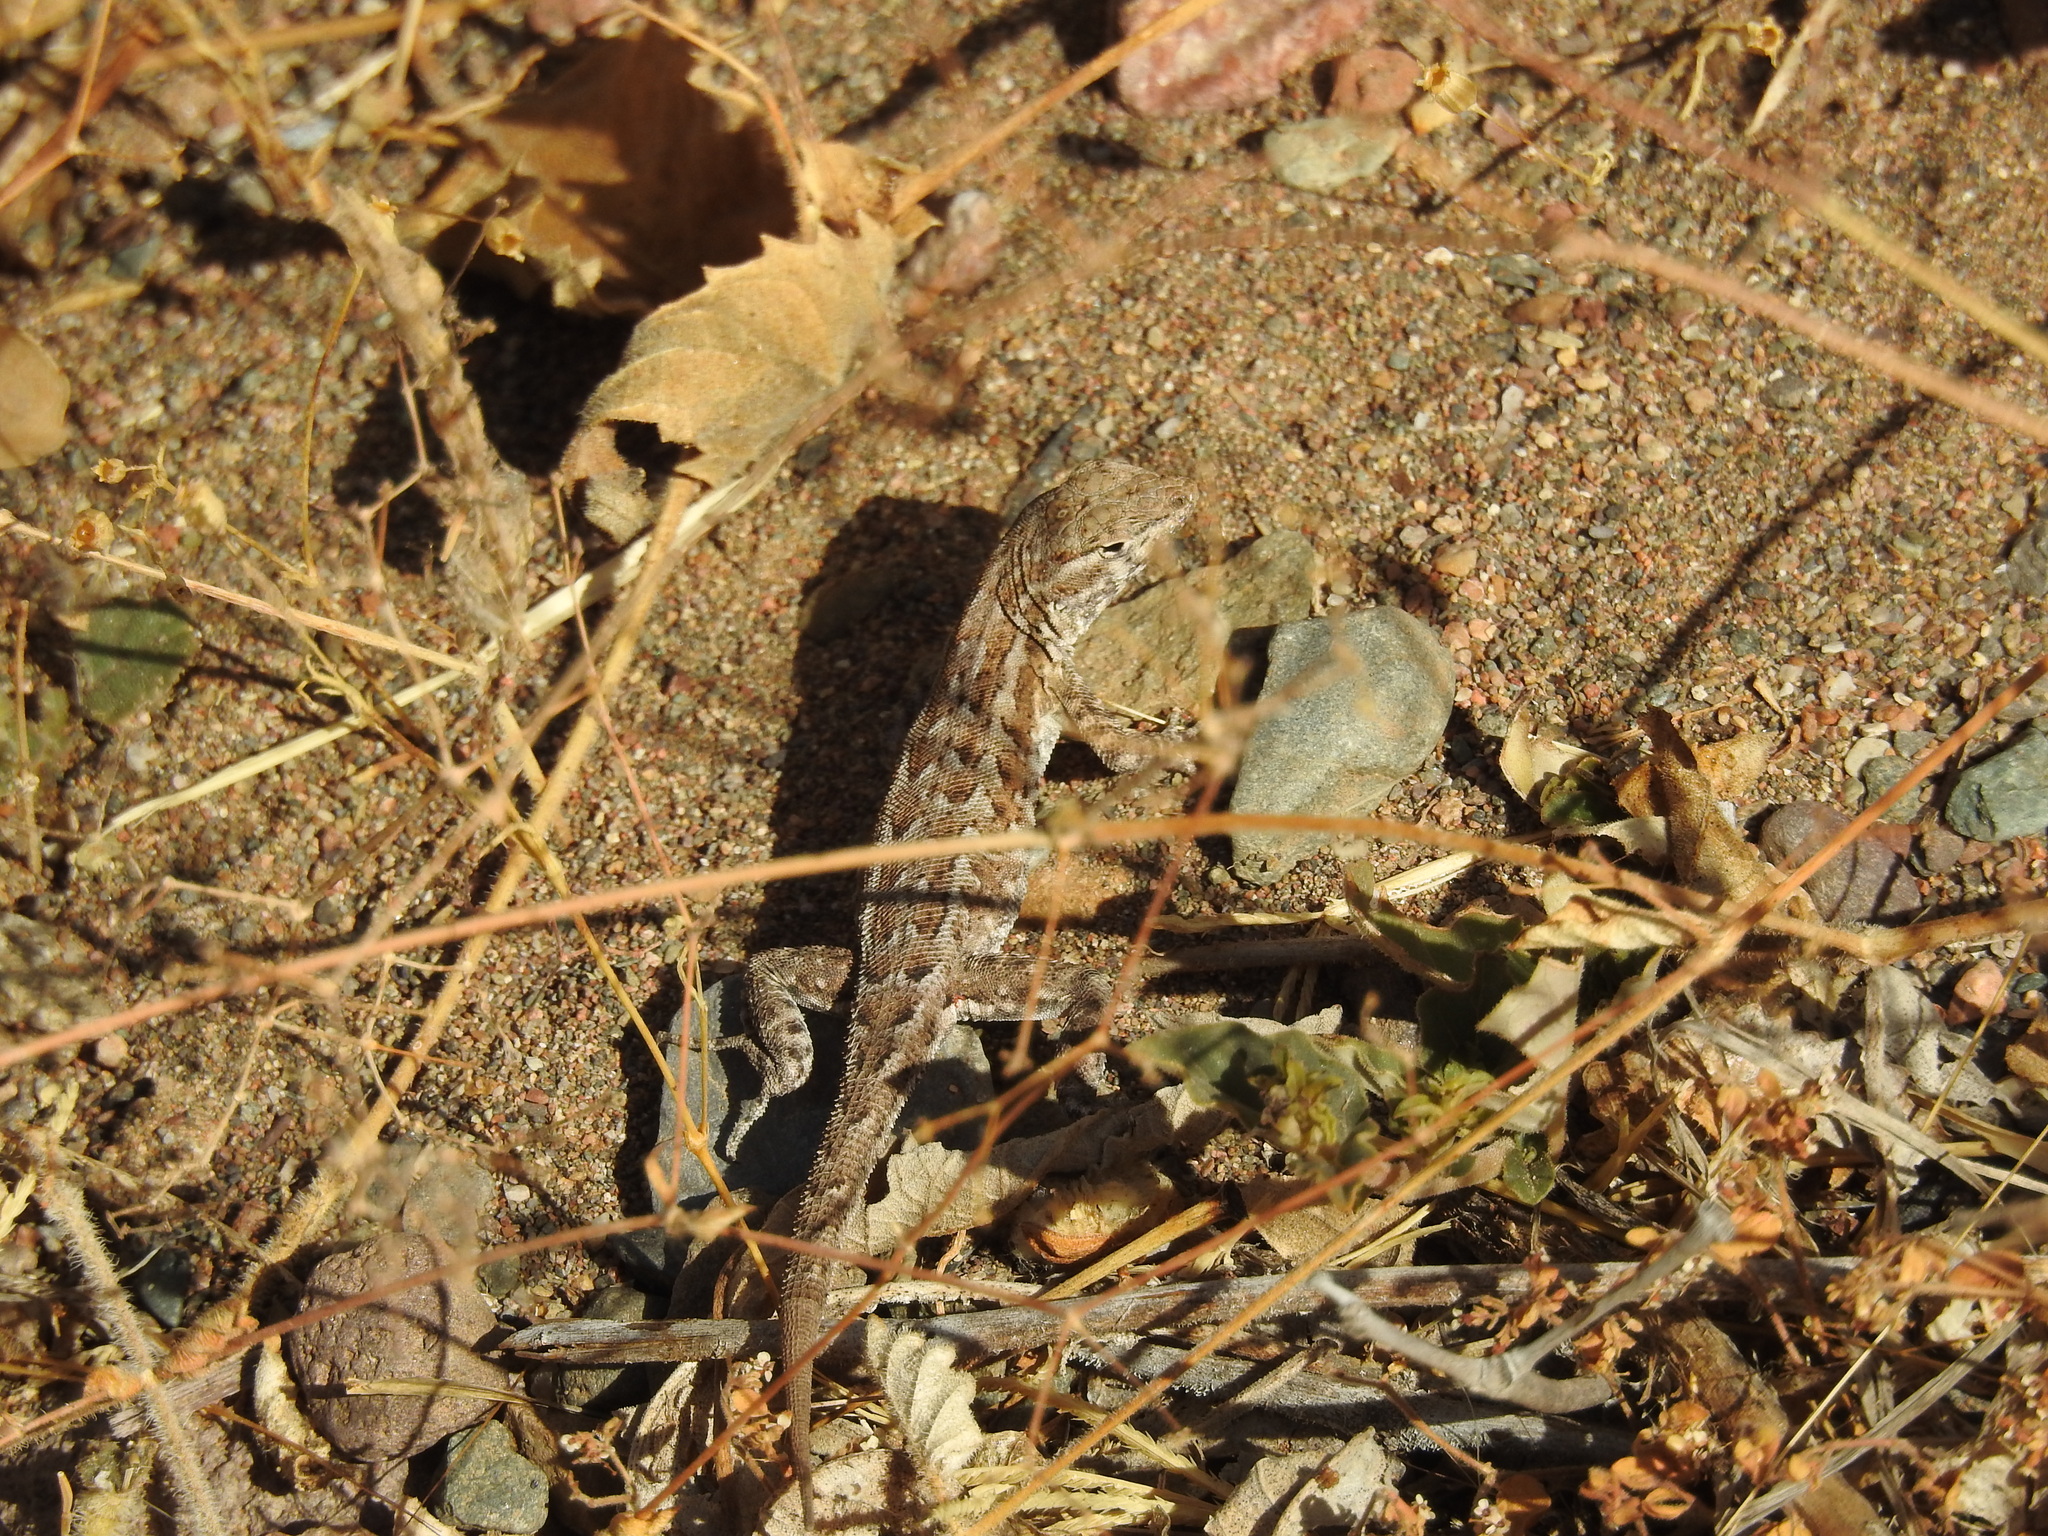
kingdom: Animalia
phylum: Chordata
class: Squamata
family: Phrynosomatidae
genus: Uta
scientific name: Uta stansburiana
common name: Side-blotched lizard
